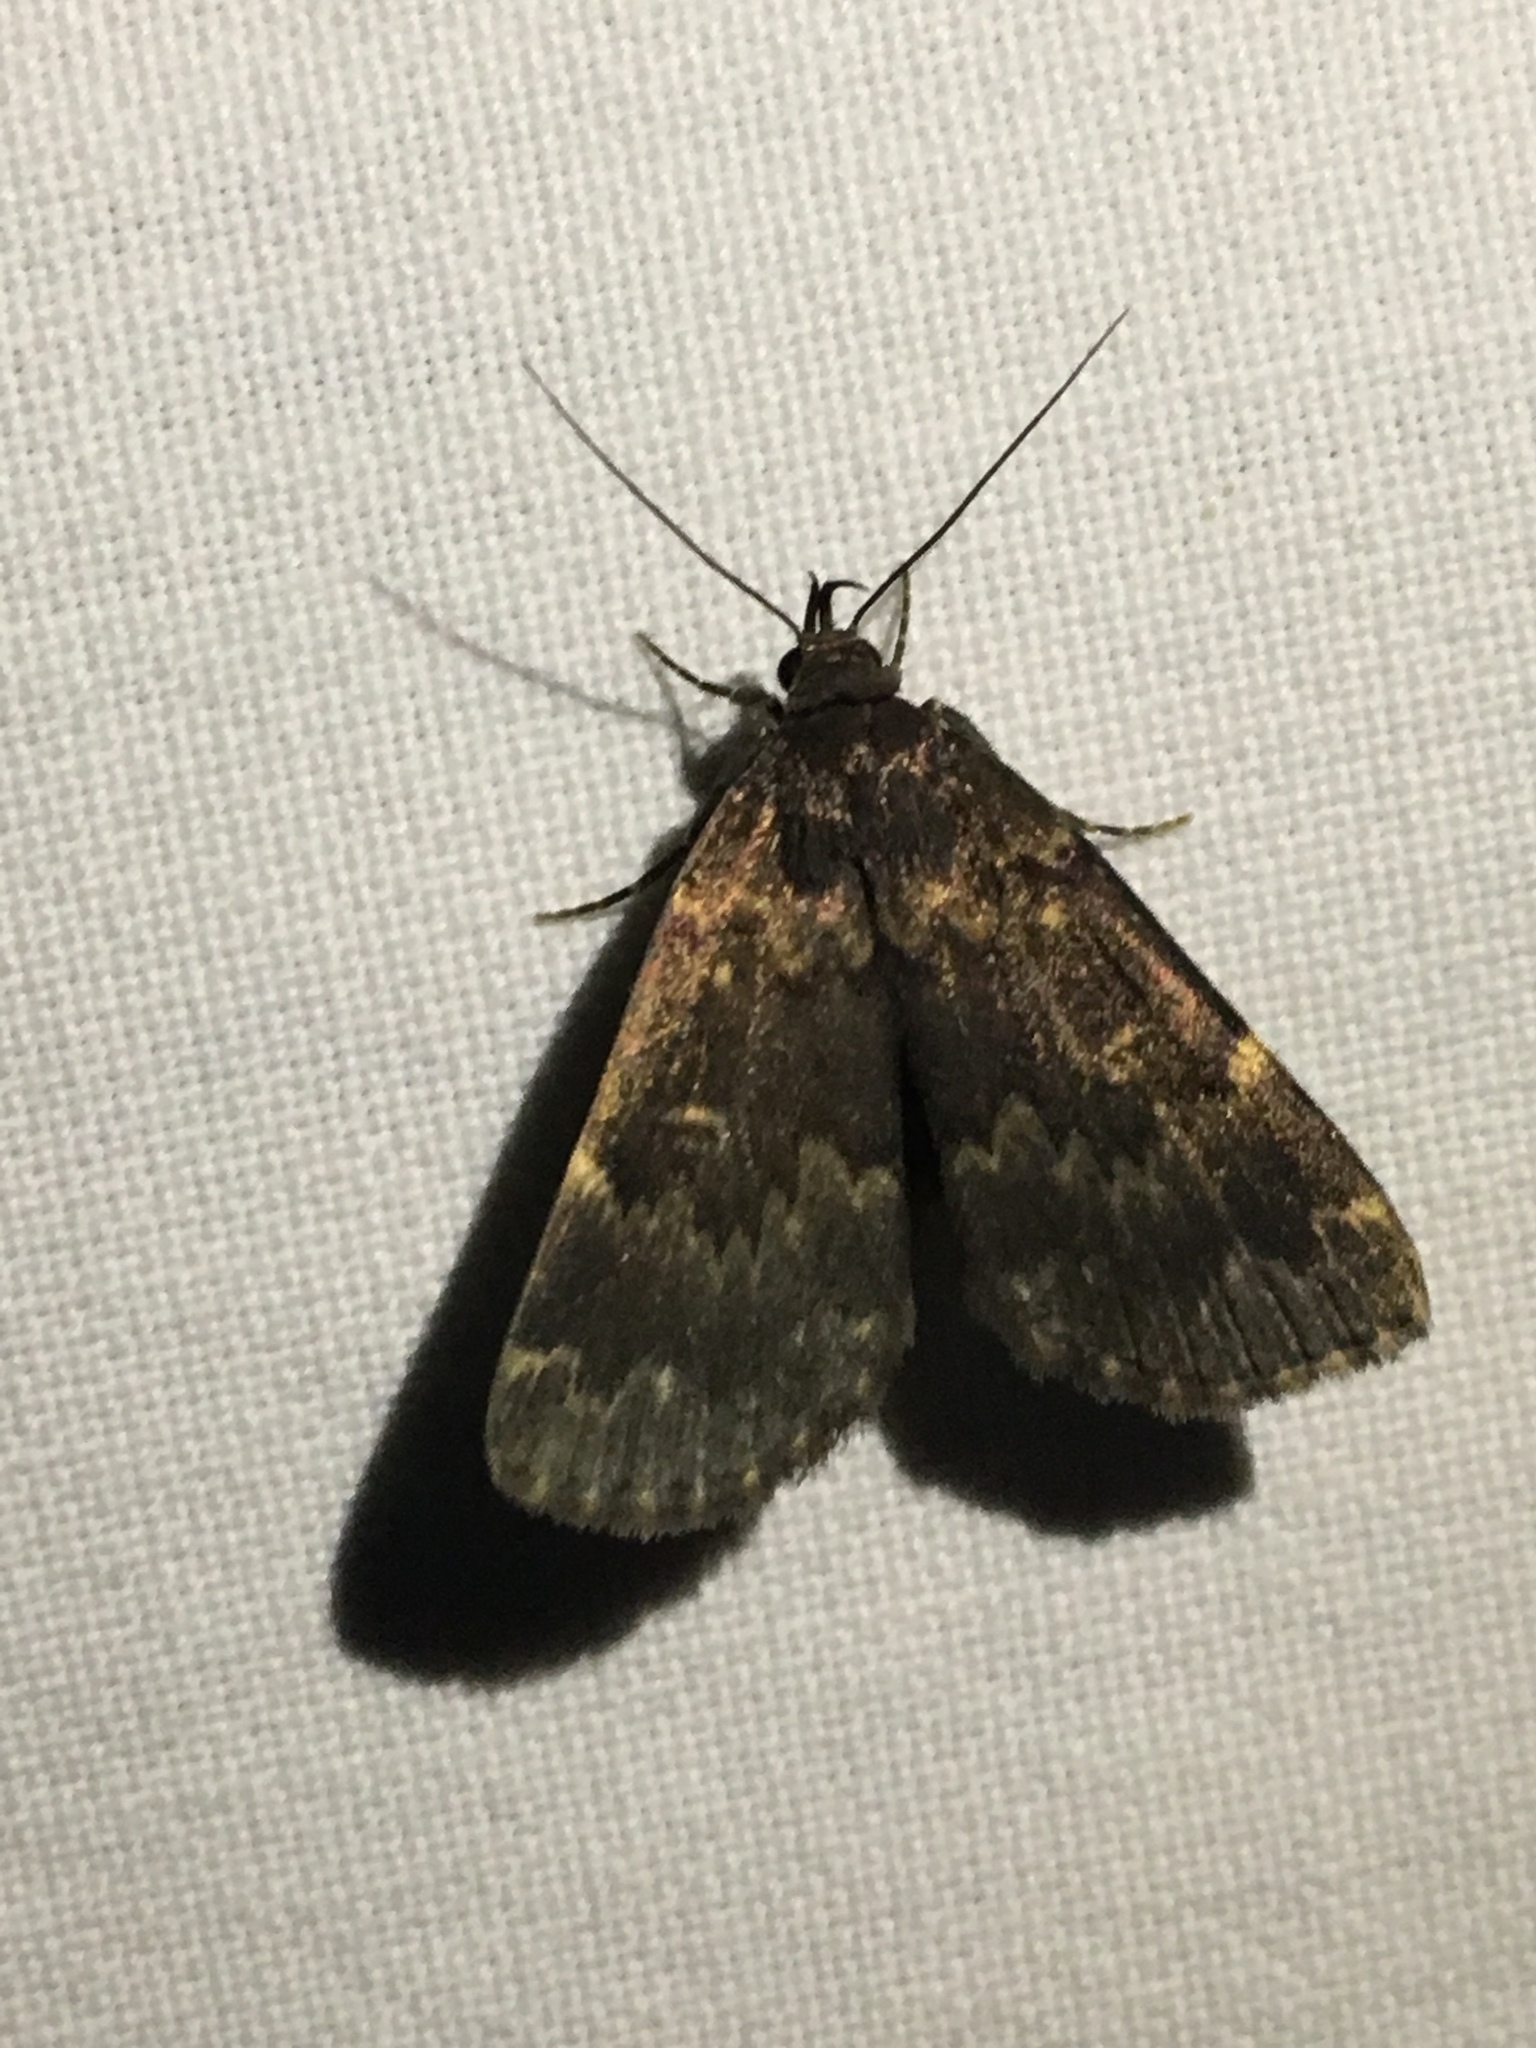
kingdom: Animalia
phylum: Arthropoda
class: Insecta
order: Lepidoptera
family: Erebidae
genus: Idia
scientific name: Idia lubricalis
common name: Twin-striped tabby
